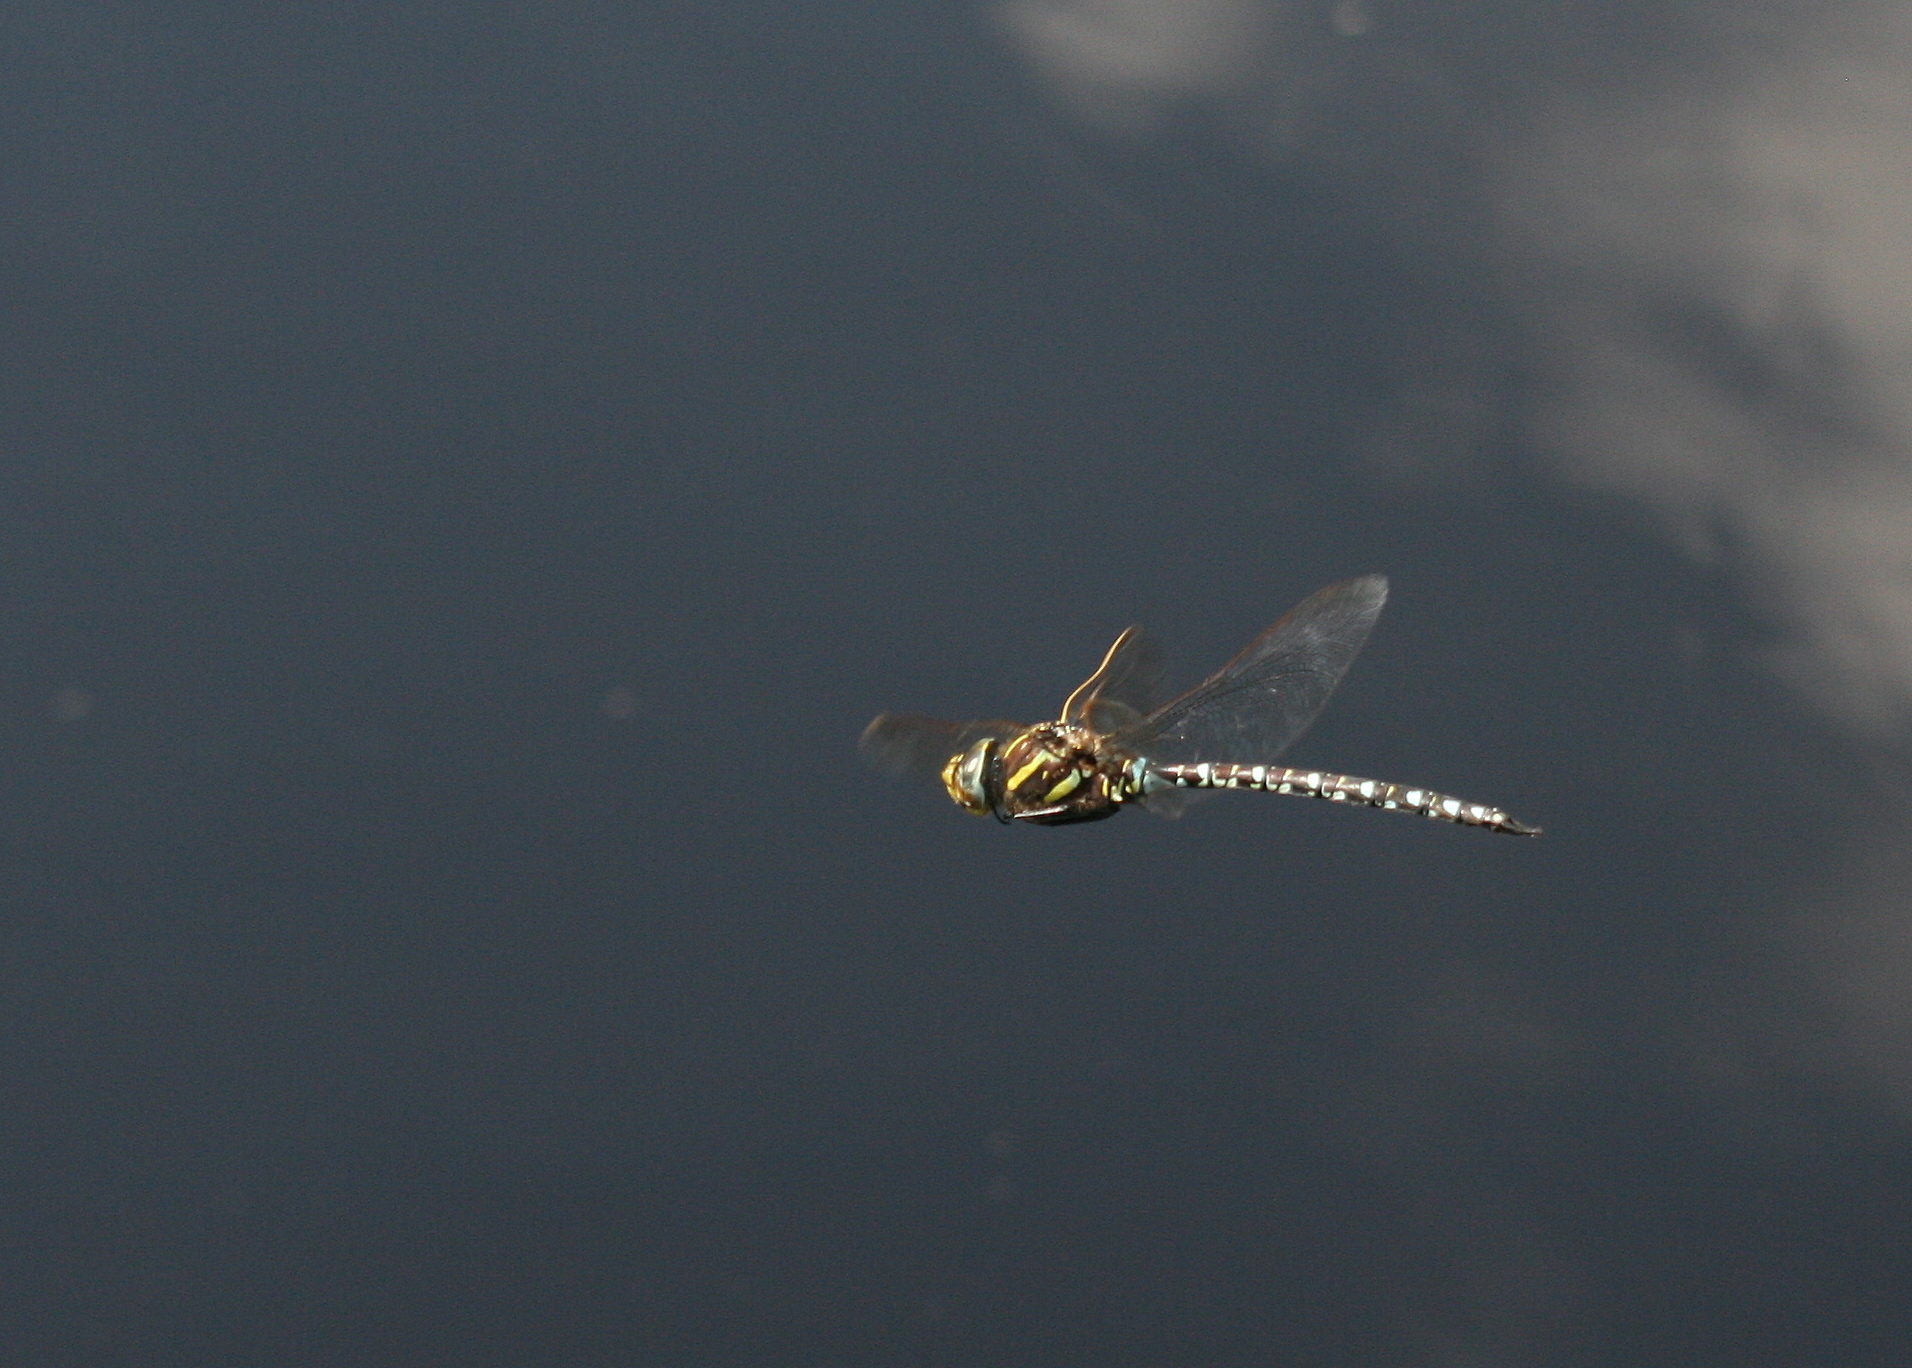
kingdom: Animalia
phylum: Arthropoda
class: Insecta
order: Odonata
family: Aeshnidae
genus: Aeshna
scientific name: Aeshna juncea
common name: Moorland hawker
